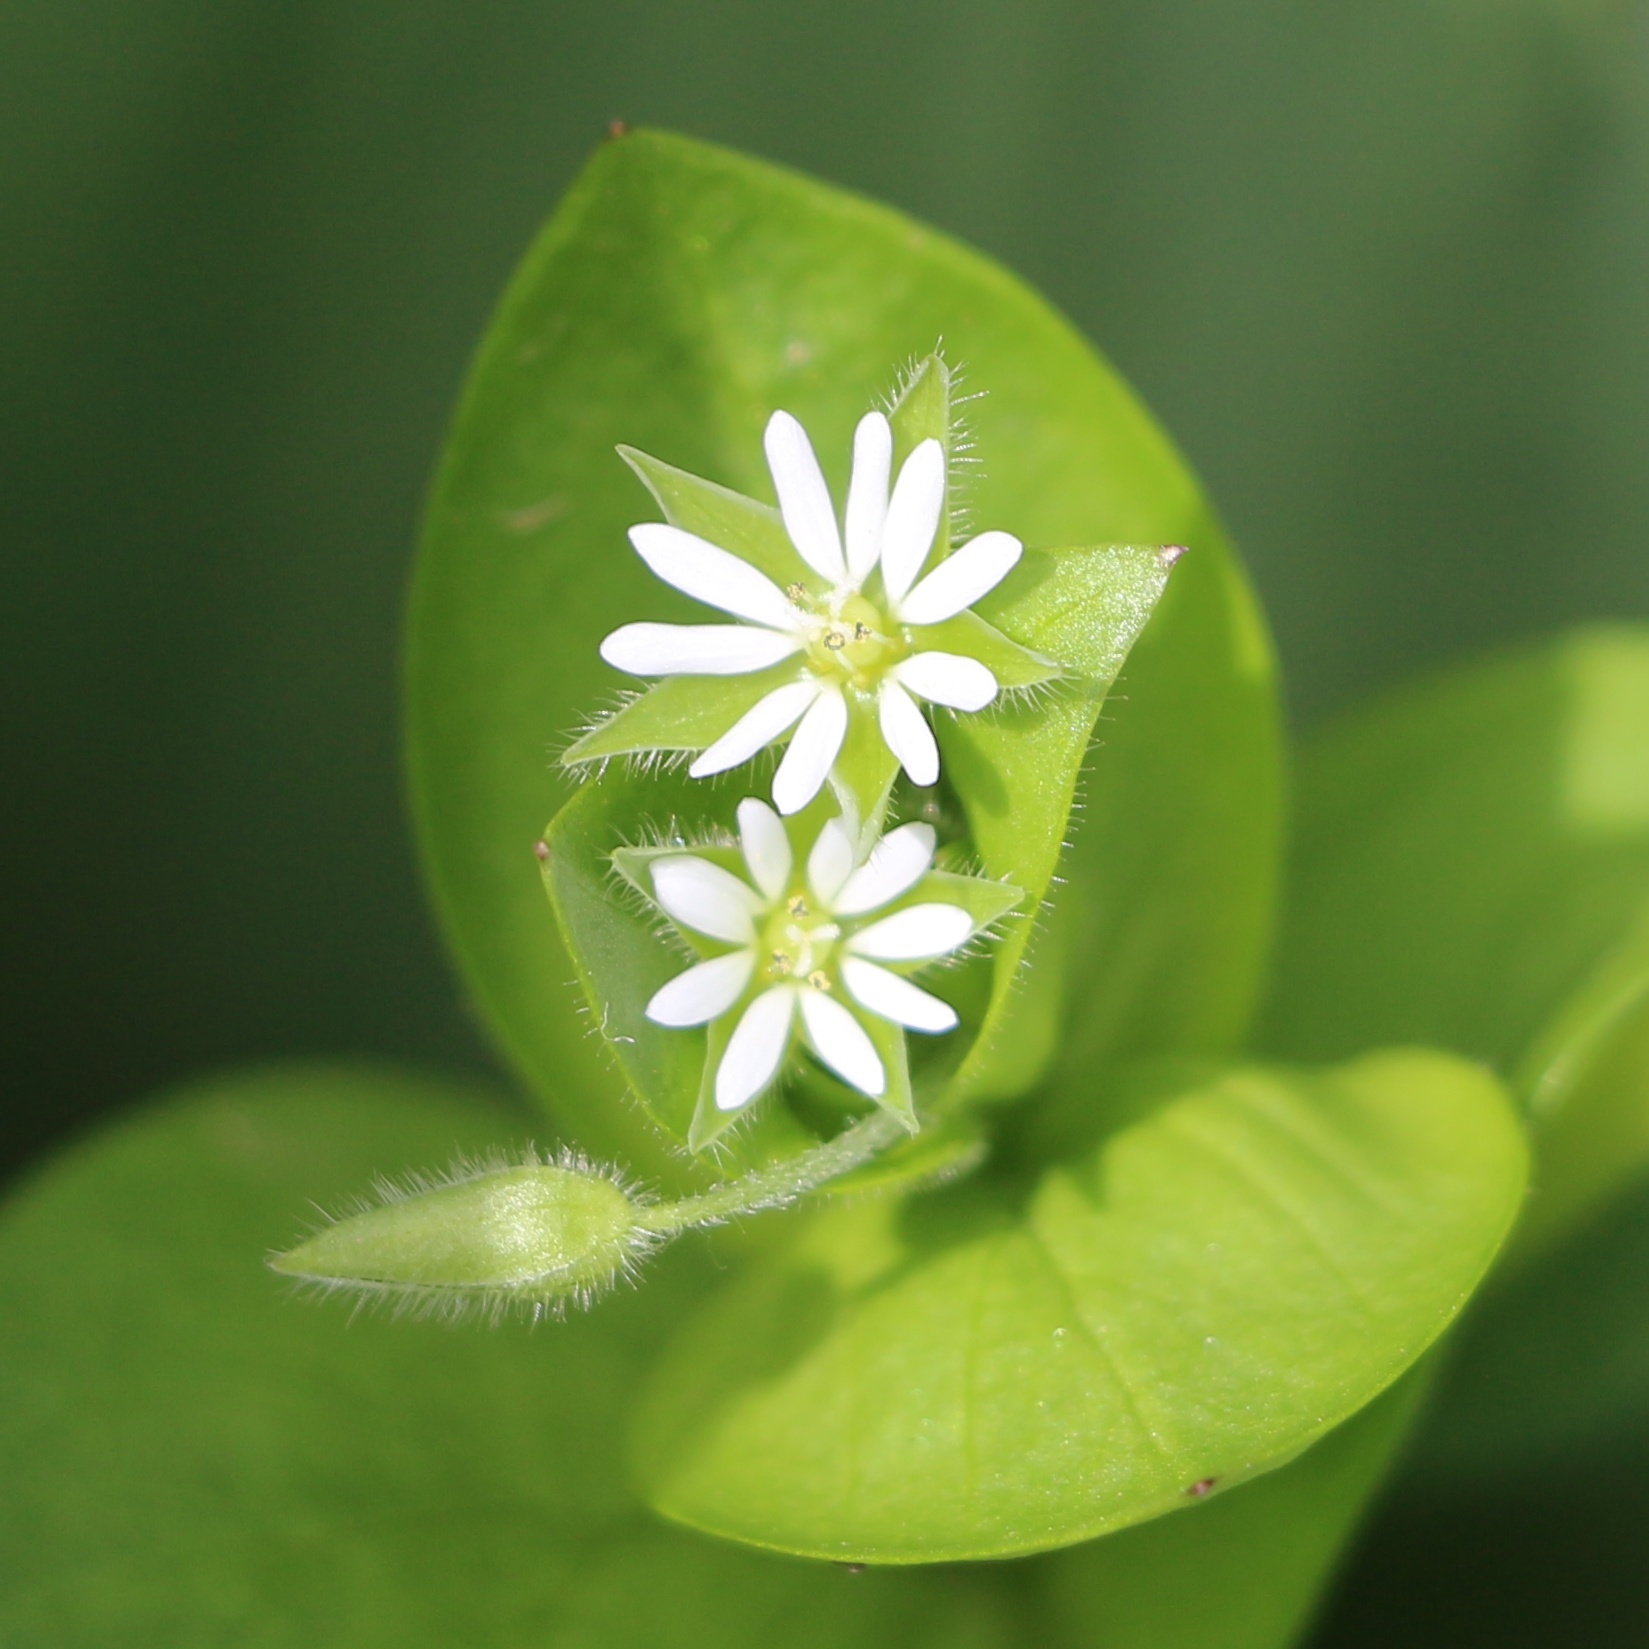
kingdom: Plantae
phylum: Tracheophyta
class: Magnoliopsida
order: Caryophyllales
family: Caryophyllaceae
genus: Stellaria
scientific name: Stellaria media
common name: Common chickweed
